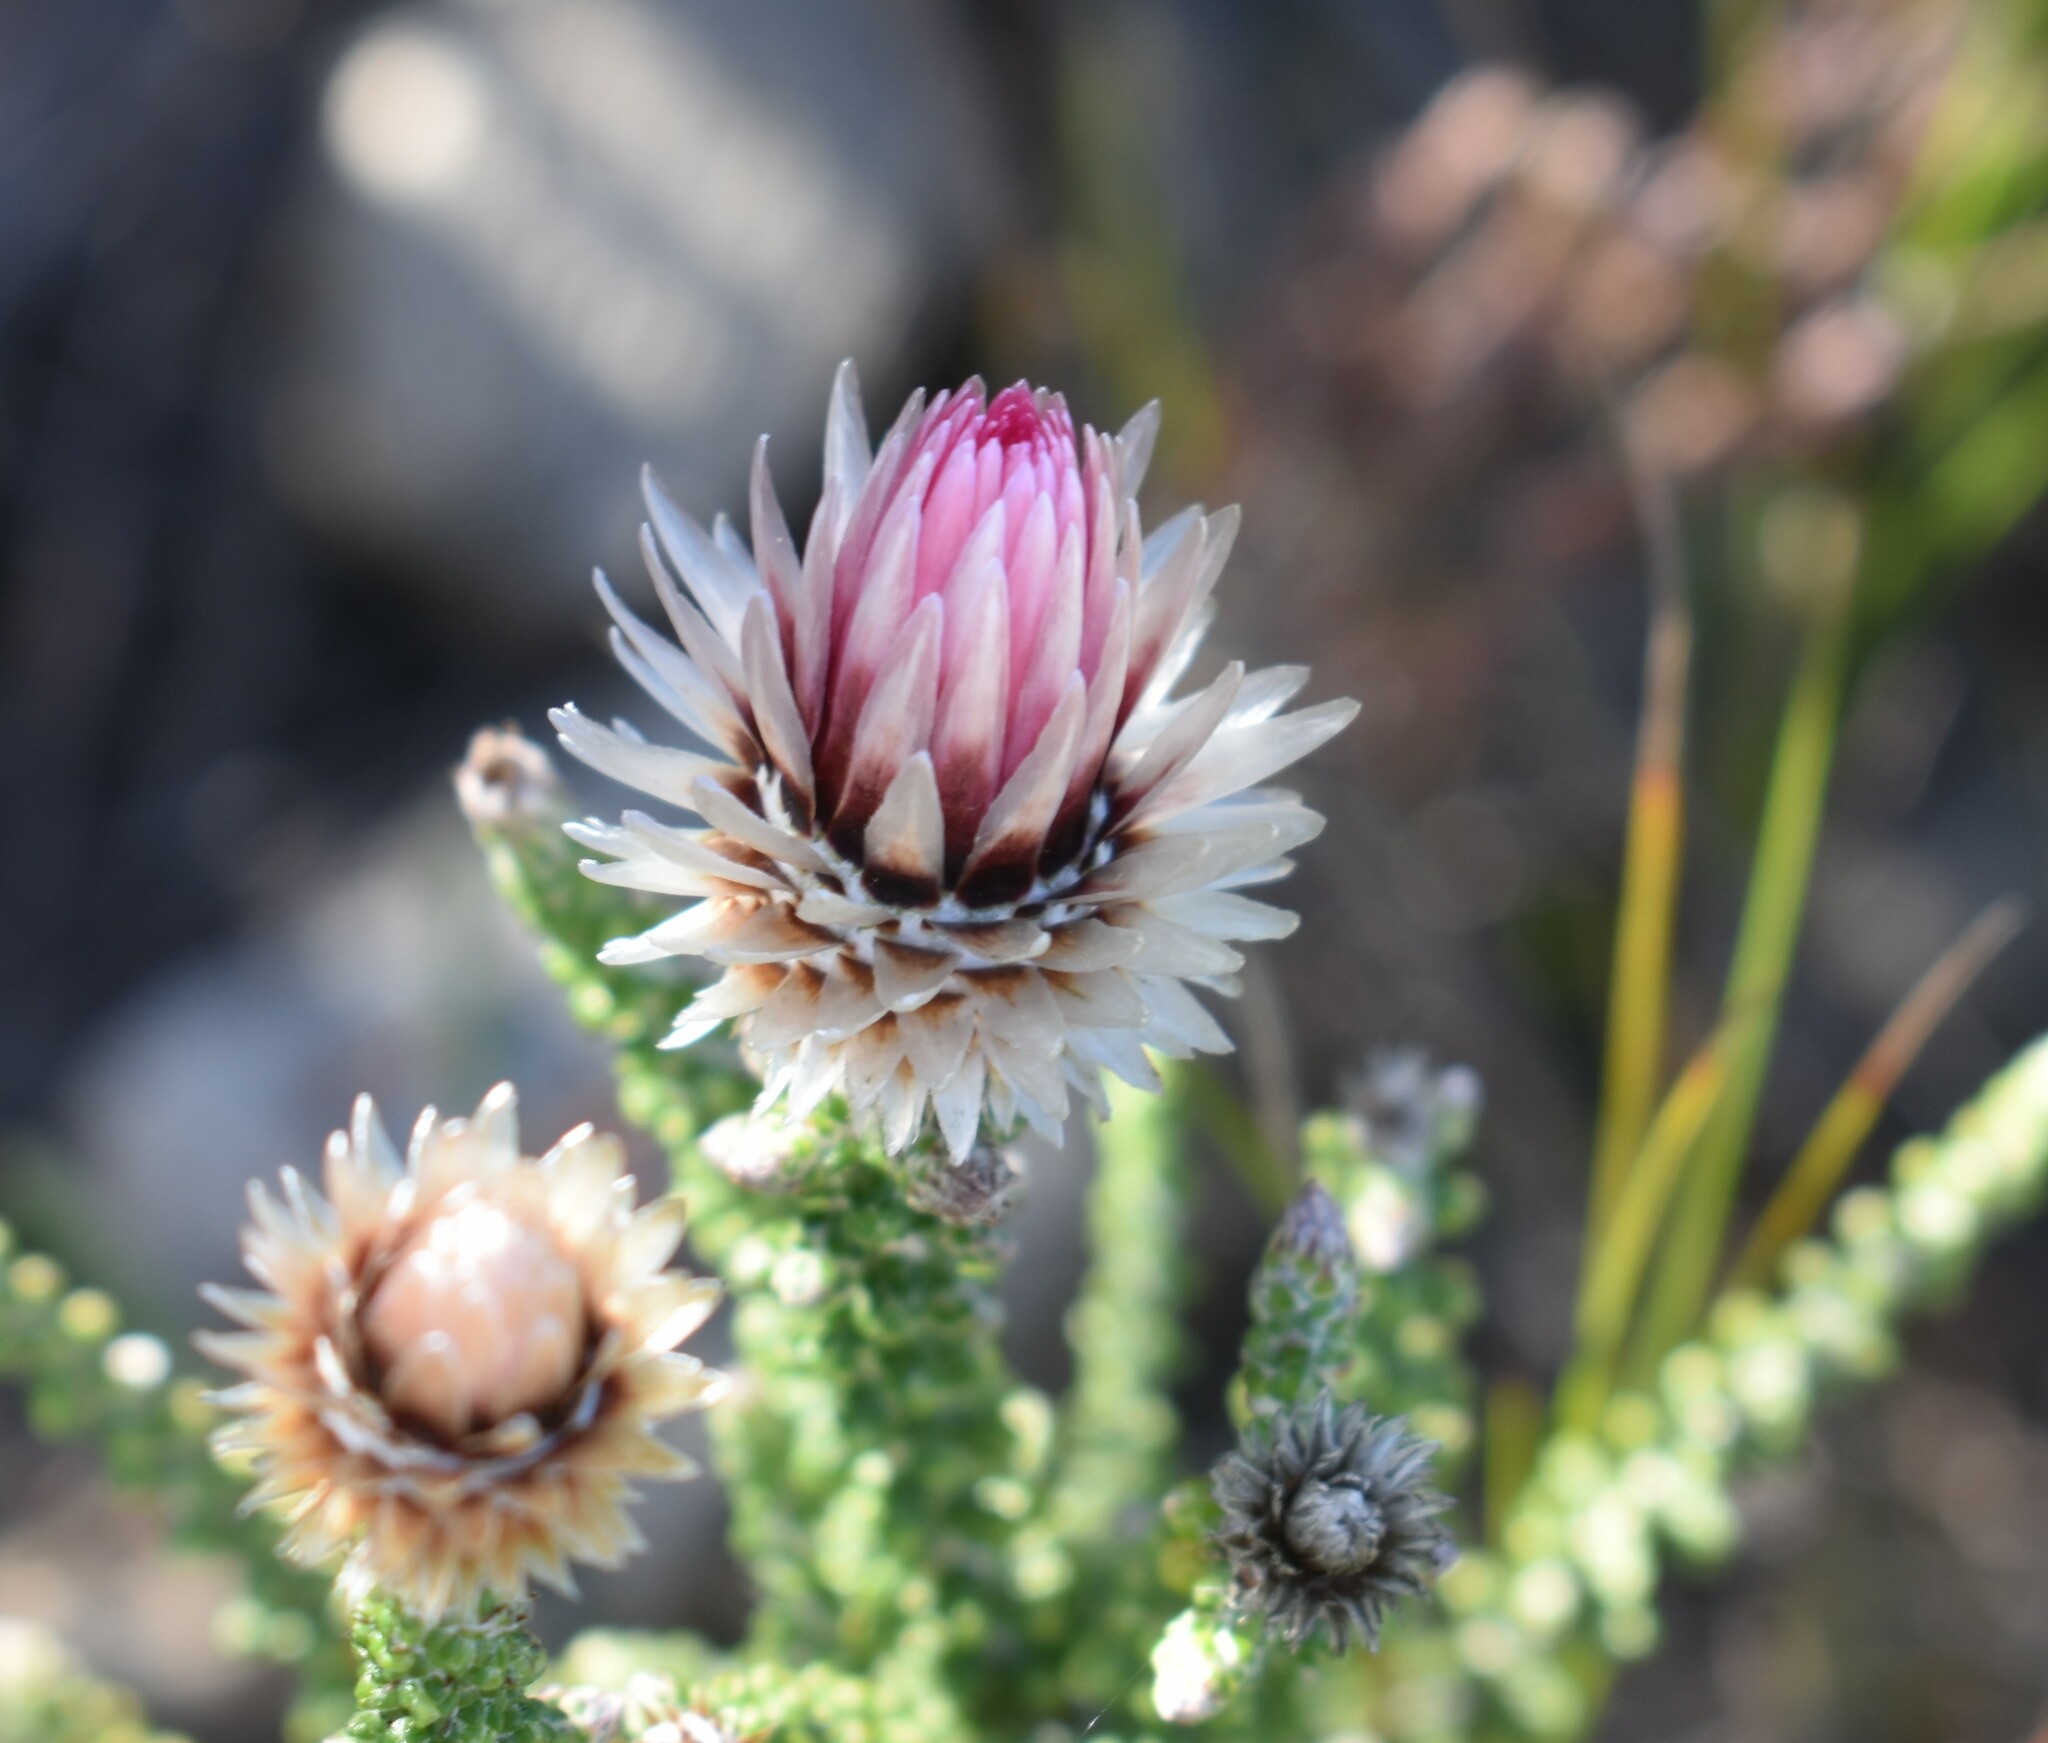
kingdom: Plantae
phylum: Tracheophyta
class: Magnoliopsida
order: Asterales
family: Asteraceae
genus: Phaenocoma
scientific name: Phaenocoma prolifera
